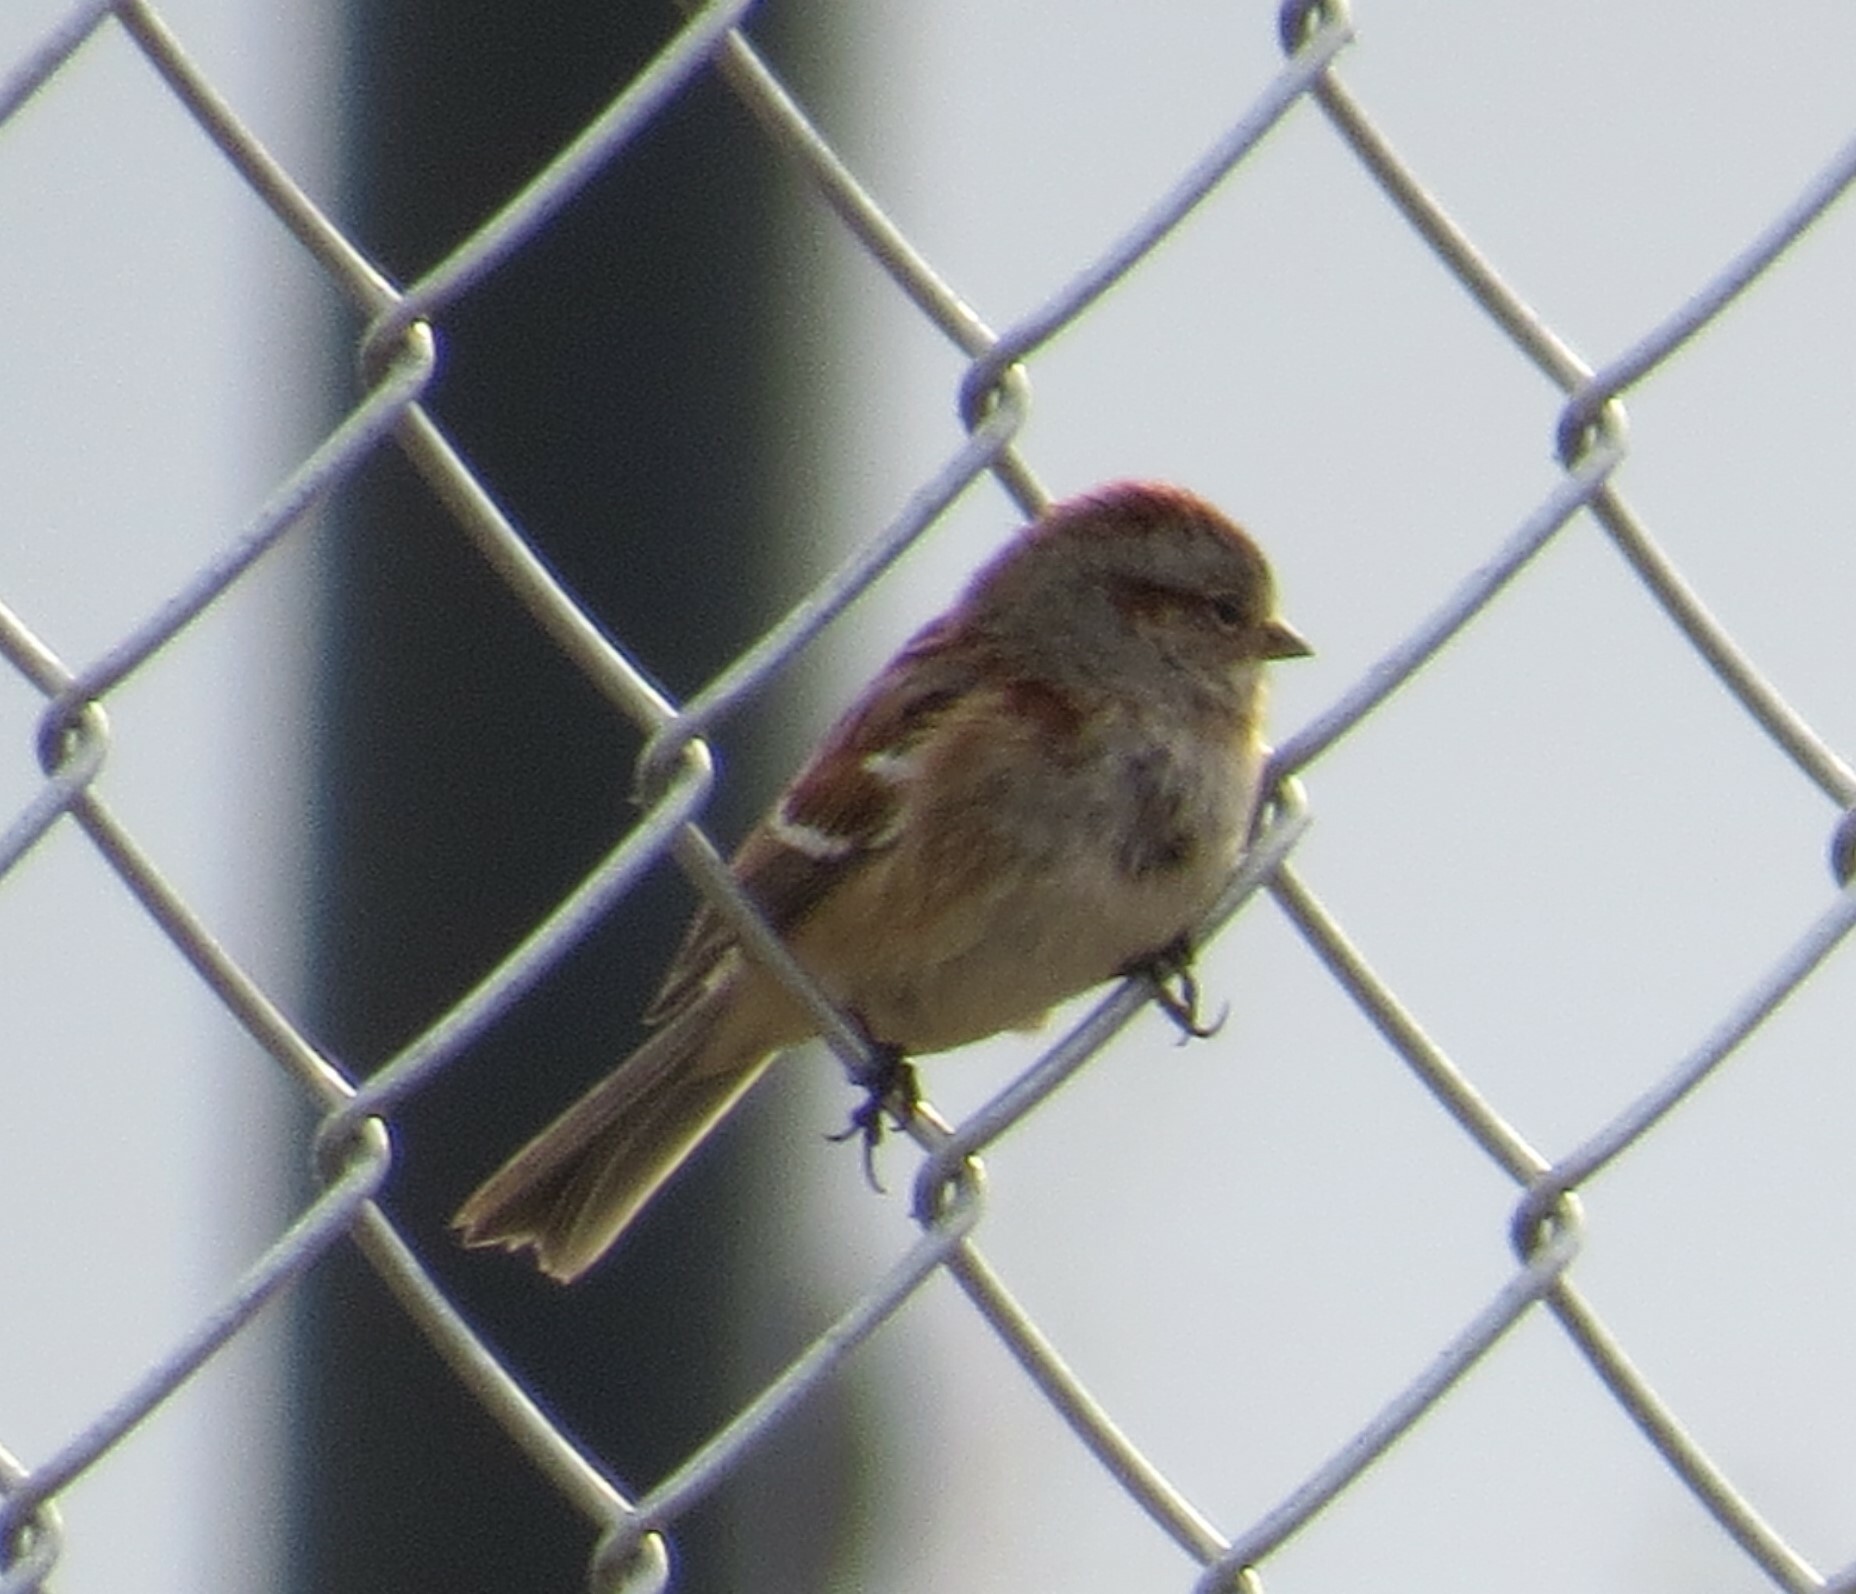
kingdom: Animalia
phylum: Chordata
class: Aves
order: Passeriformes
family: Passerellidae
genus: Spizelloides
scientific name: Spizelloides arborea
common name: American tree sparrow
